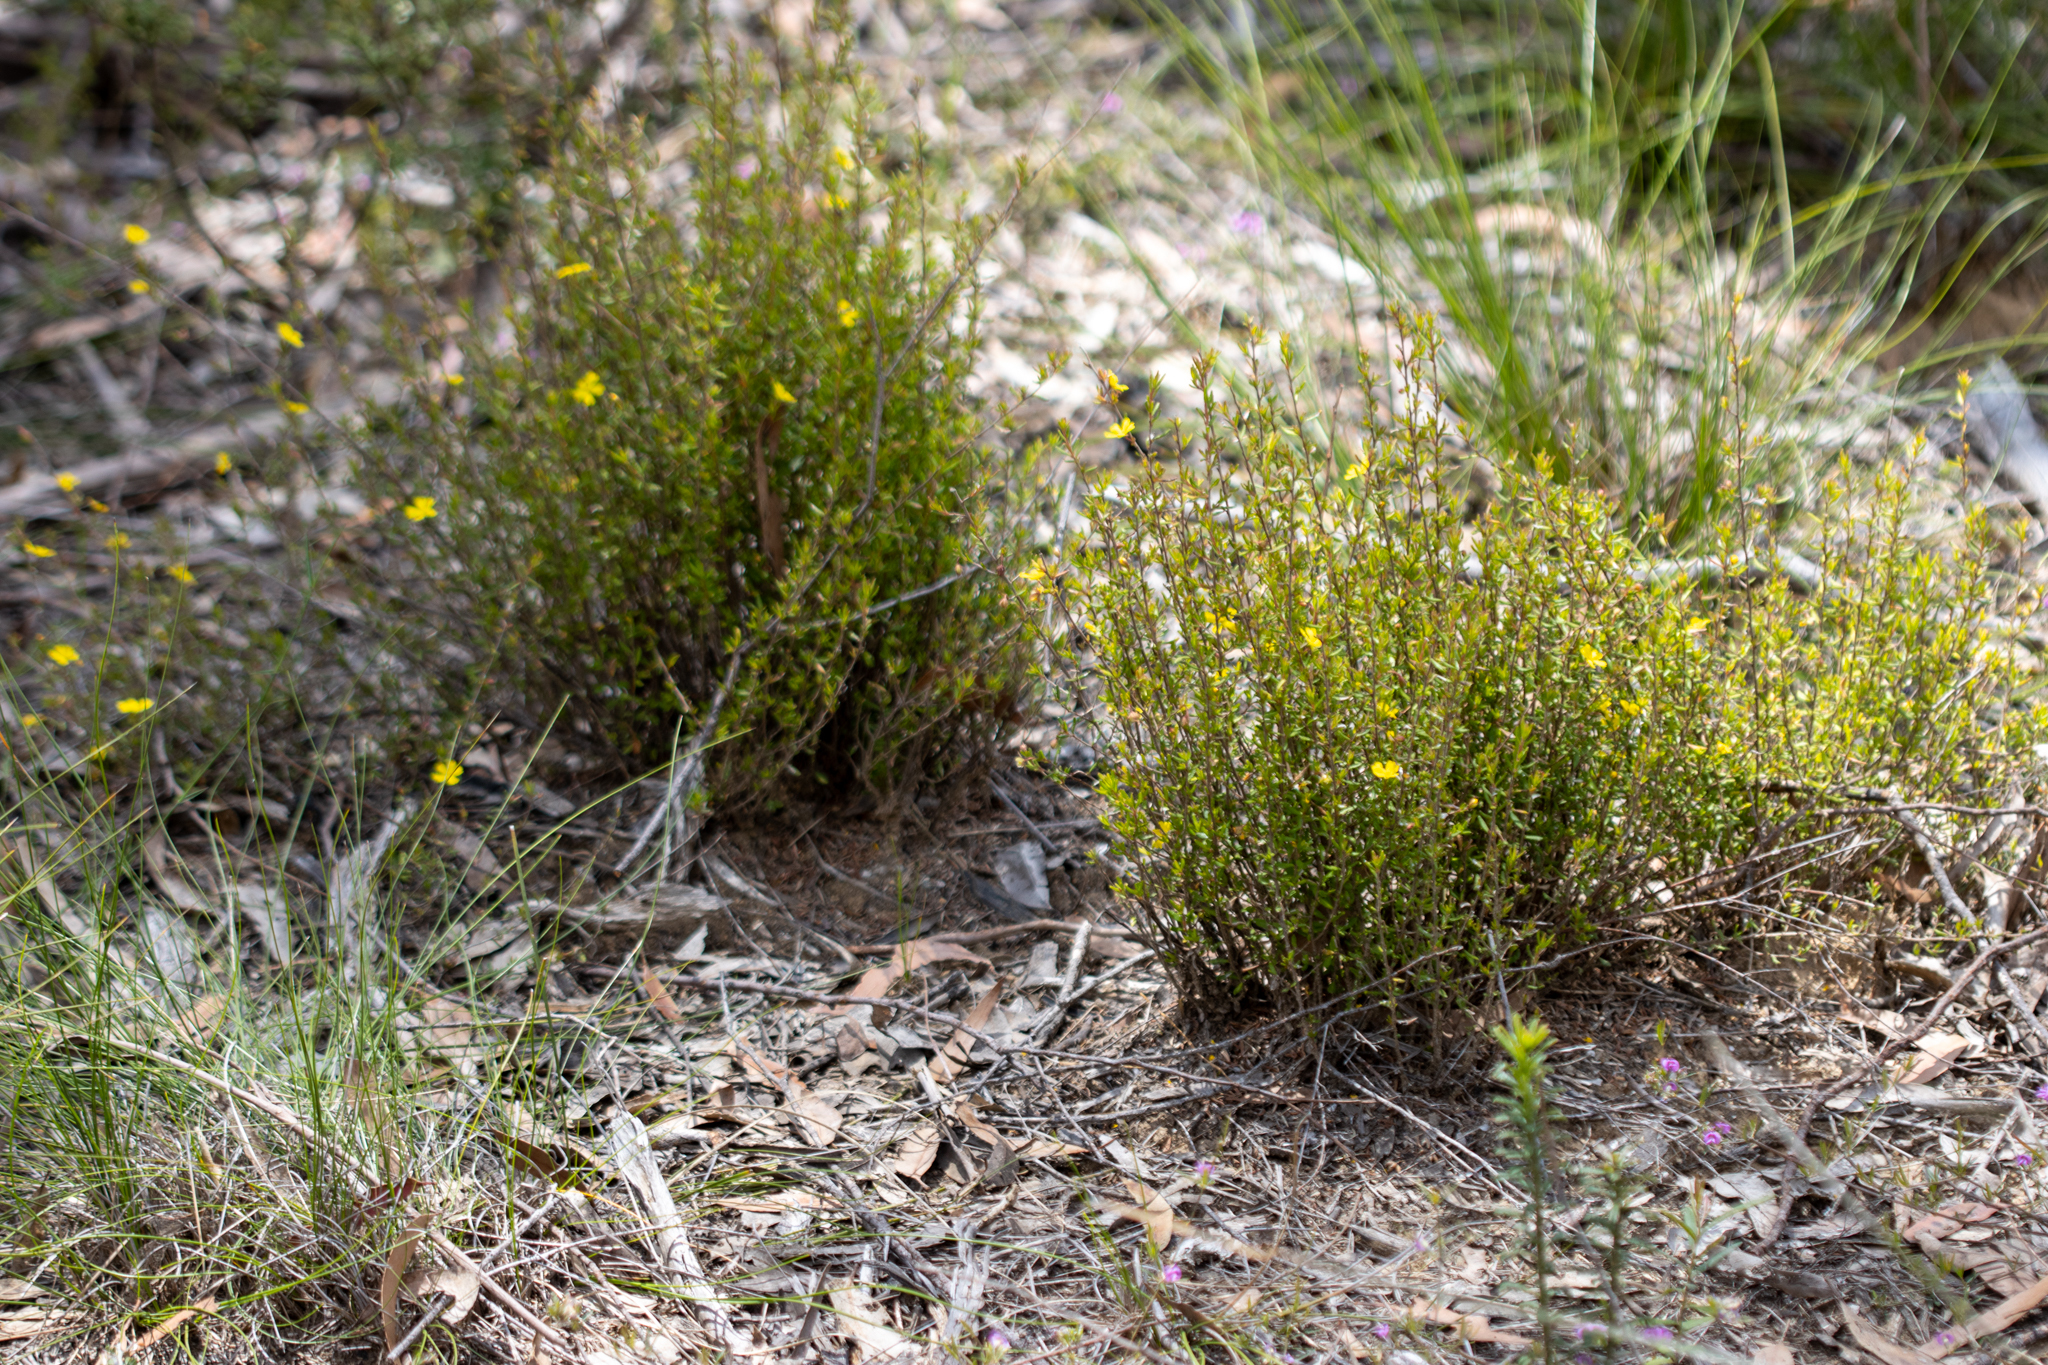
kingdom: Plantae
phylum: Tracheophyta
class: Magnoliopsida
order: Dilleniales
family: Dilleniaceae
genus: Hibbertia
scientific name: Hibbertia empetrifolia
